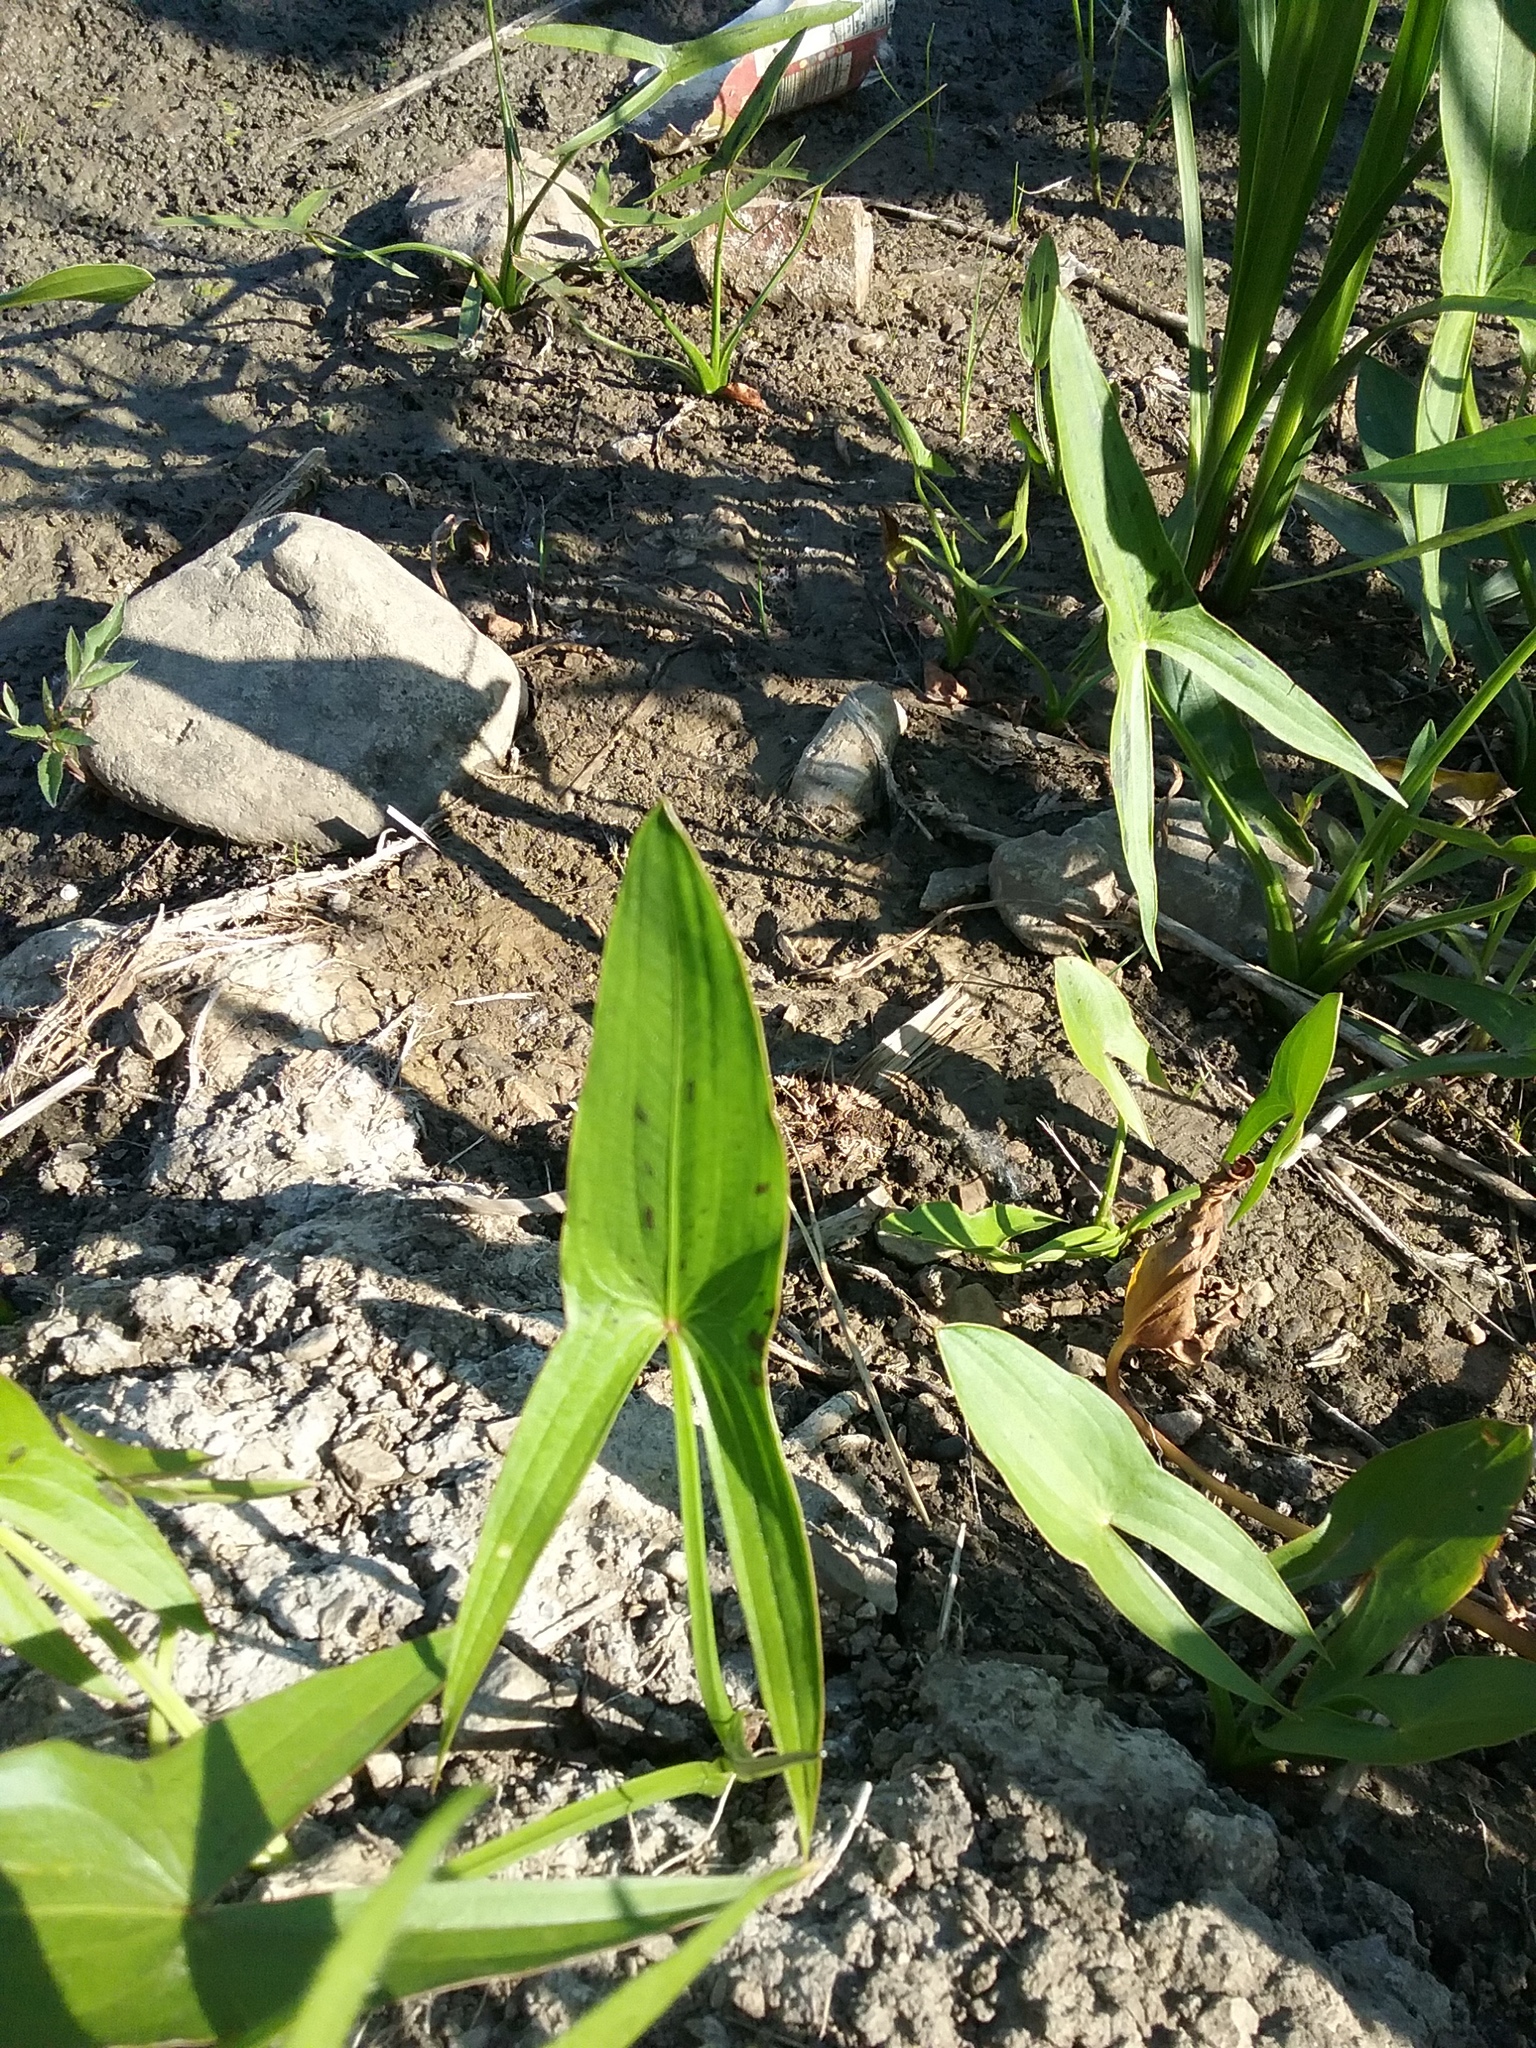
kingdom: Plantae
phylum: Tracheophyta
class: Liliopsida
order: Alismatales
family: Alismataceae
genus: Sagittaria
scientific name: Sagittaria
